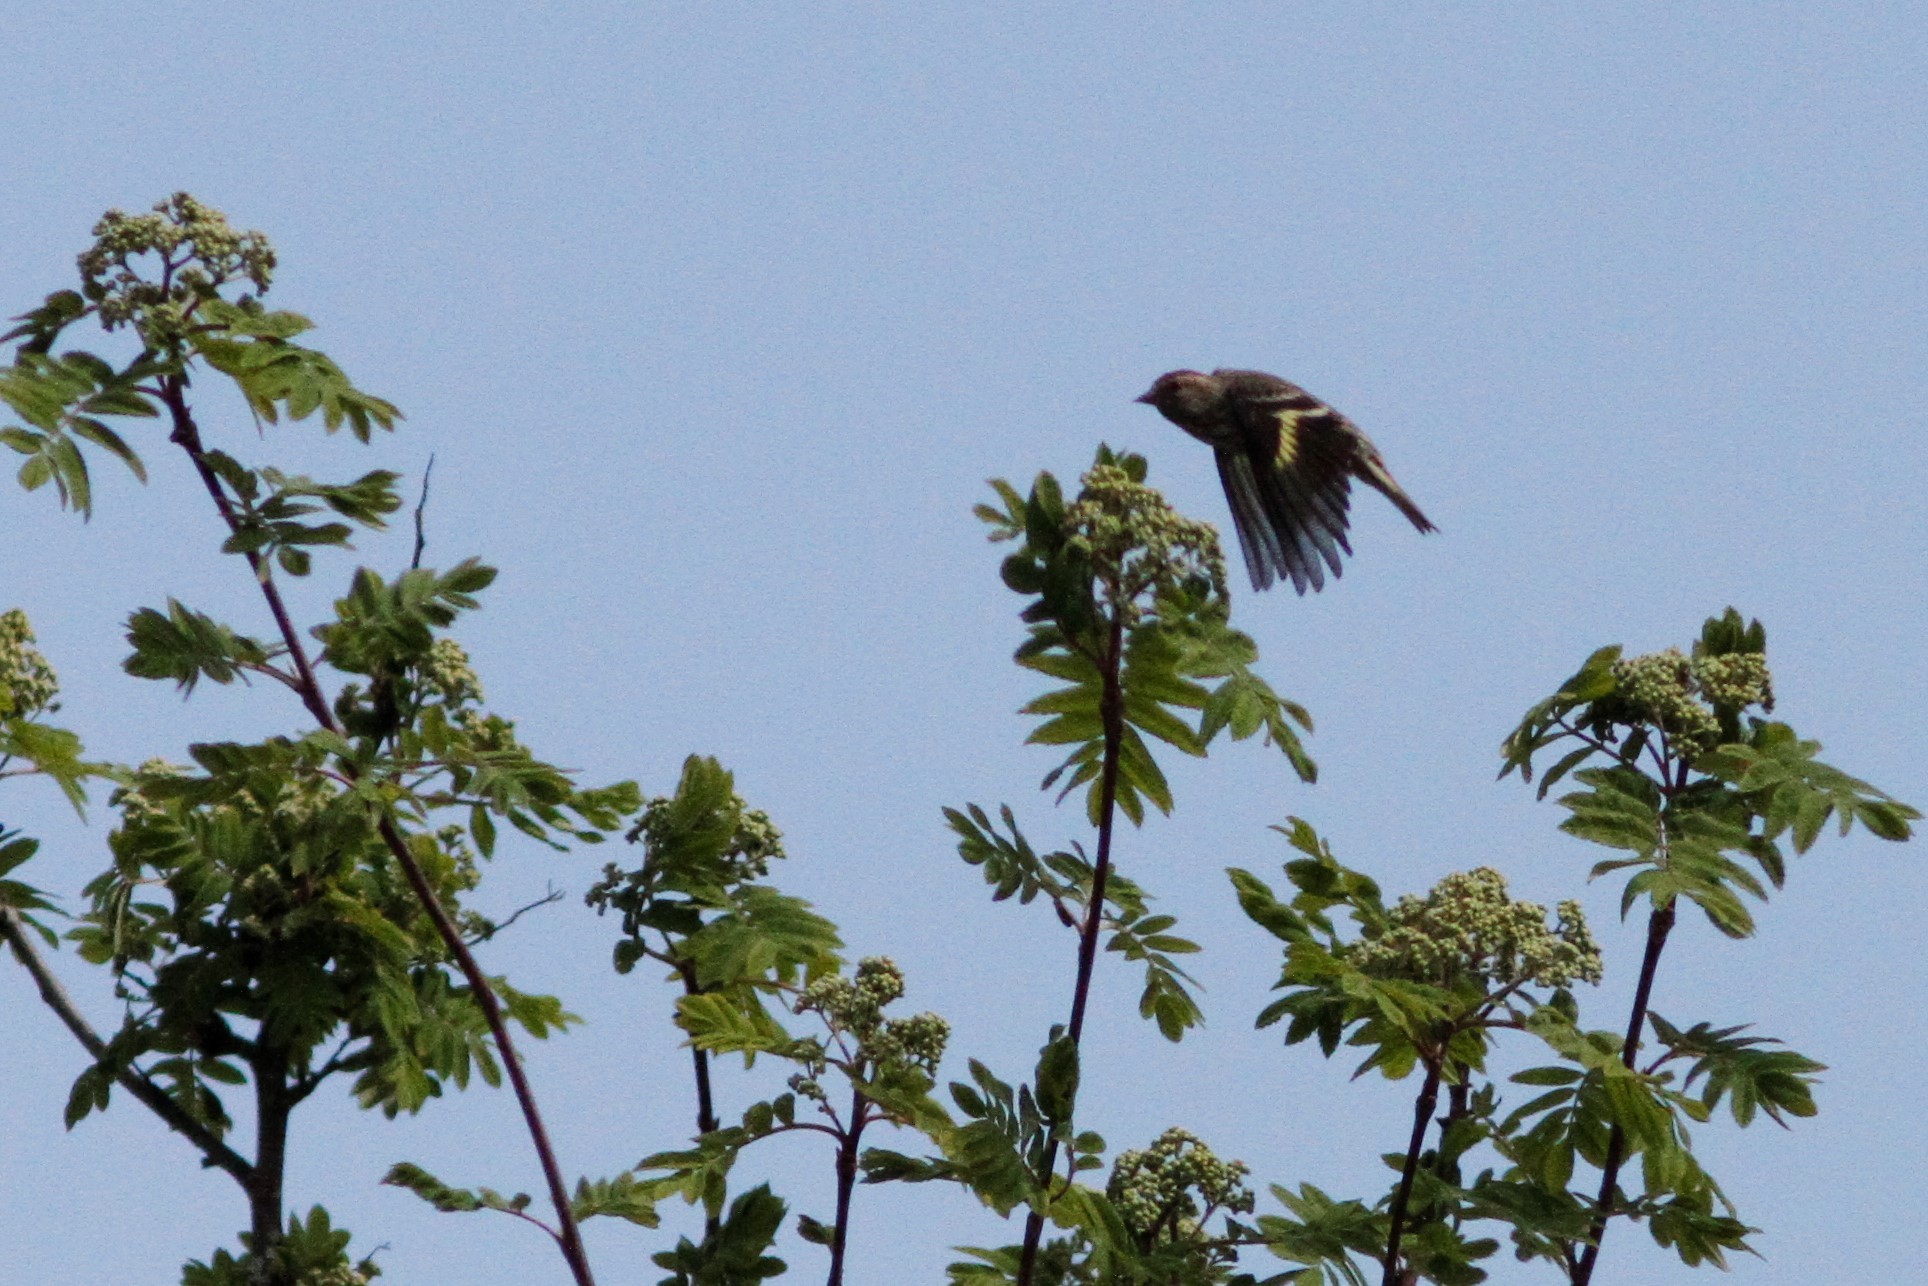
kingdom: Animalia
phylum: Chordata
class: Aves
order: Passeriformes
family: Fringillidae
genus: Spinus
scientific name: Spinus pinus
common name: Pine siskin
